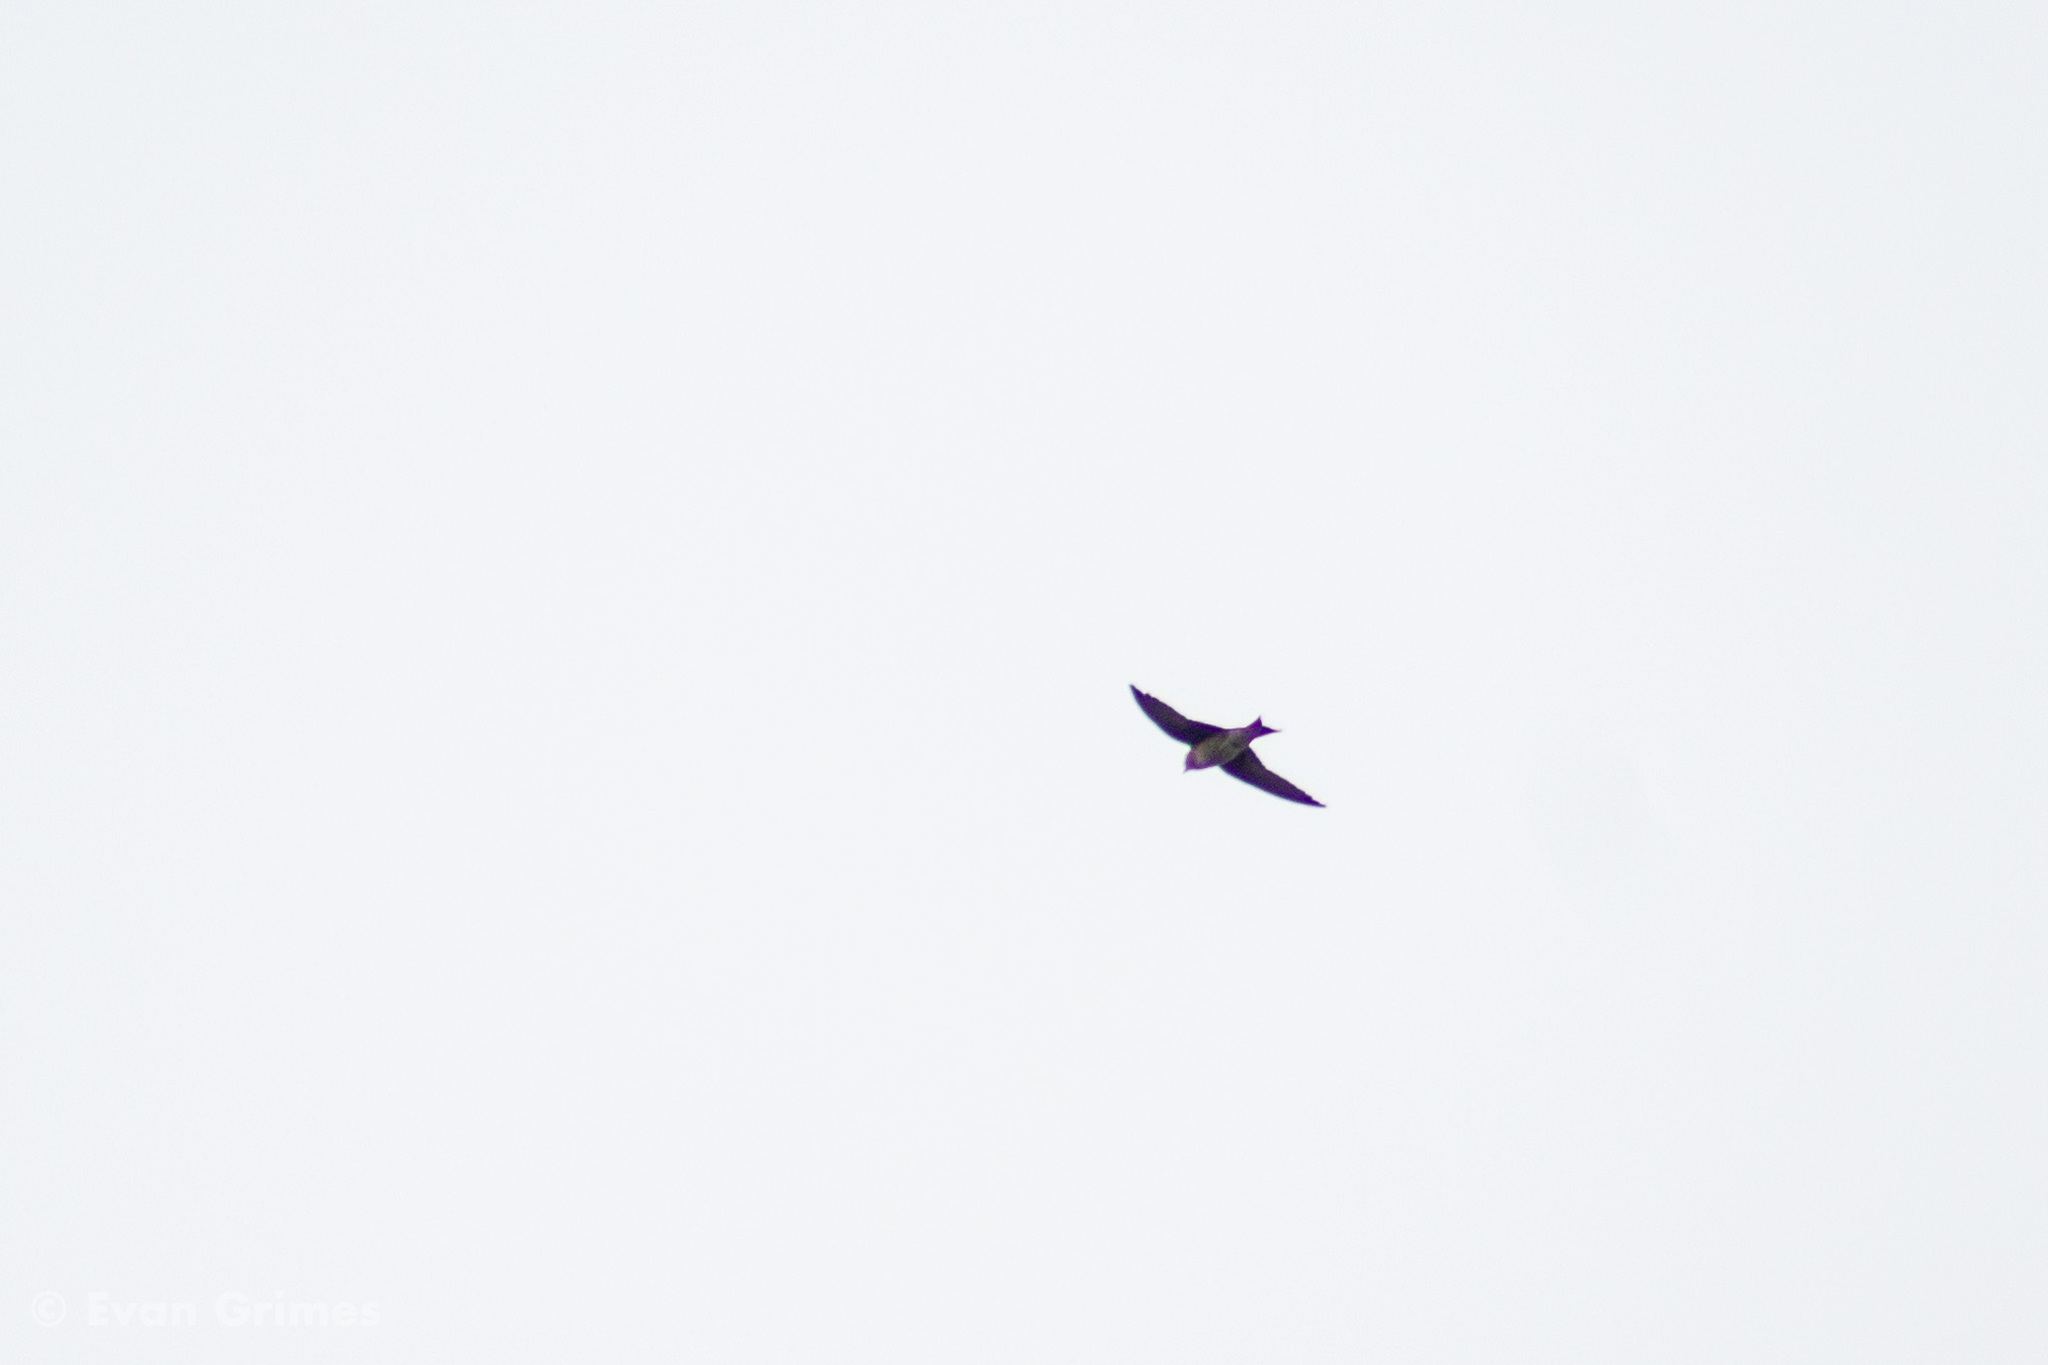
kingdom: Animalia
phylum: Chordata
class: Aves
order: Passeriformes
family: Hirundinidae
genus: Progne
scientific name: Progne subis
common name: Purple martin
